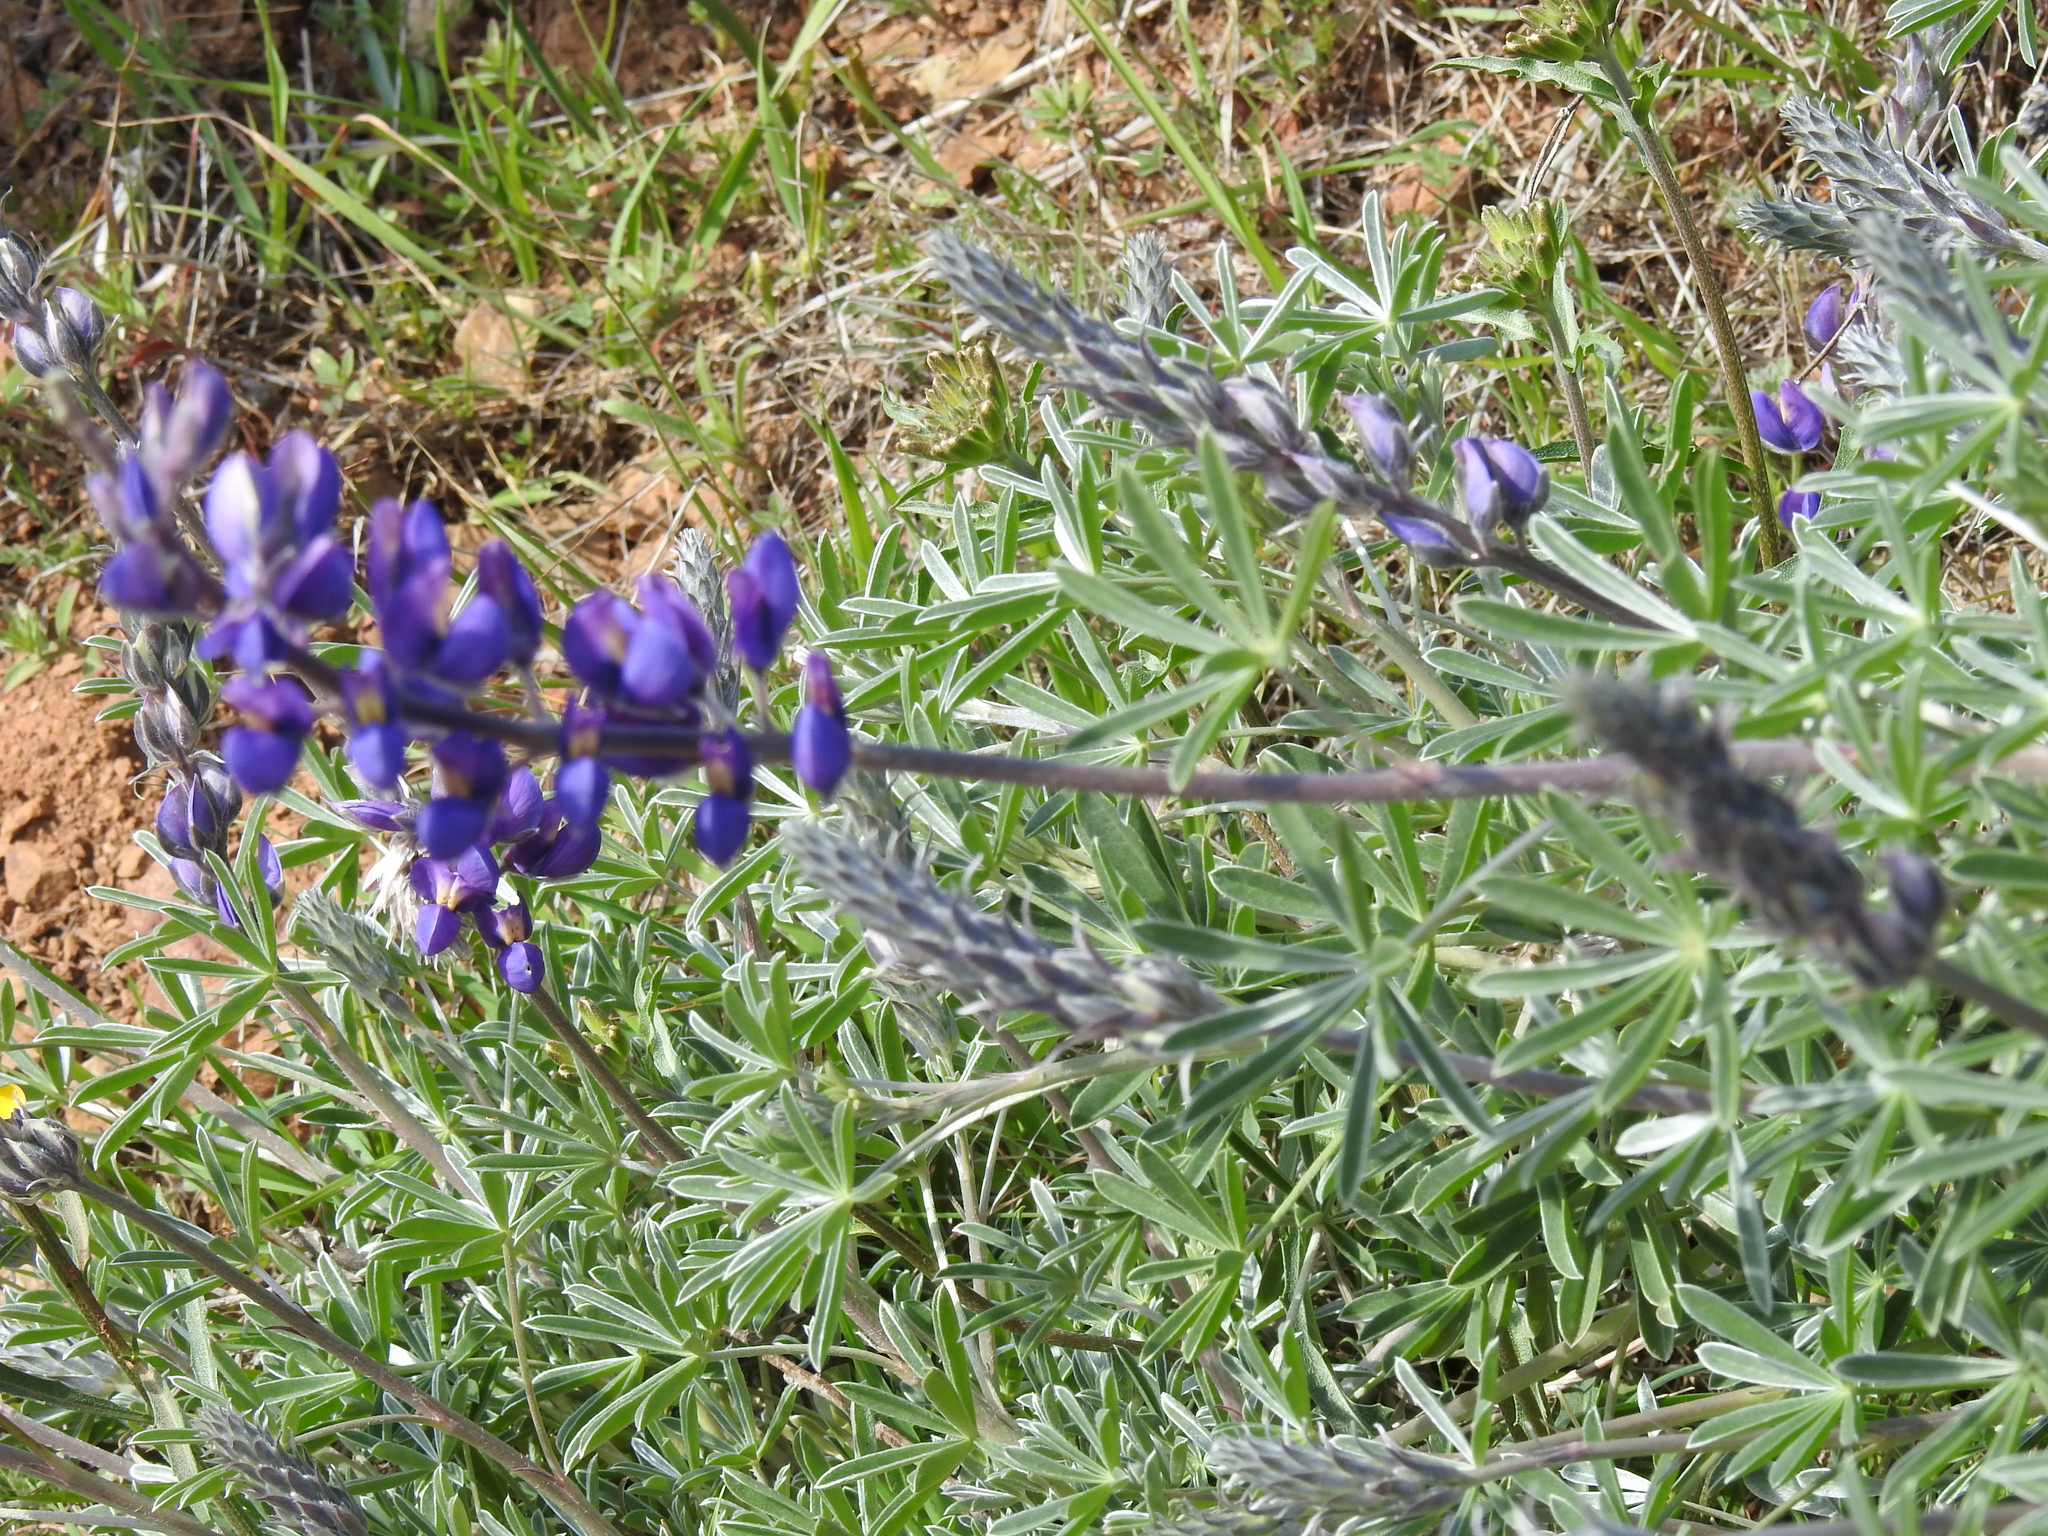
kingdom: Plantae
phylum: Tracheophyta
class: Magnoliopsida
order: Fabales
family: Fabaceae
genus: Lupinus
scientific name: Lupinus albifrons
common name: Foothill lupine
